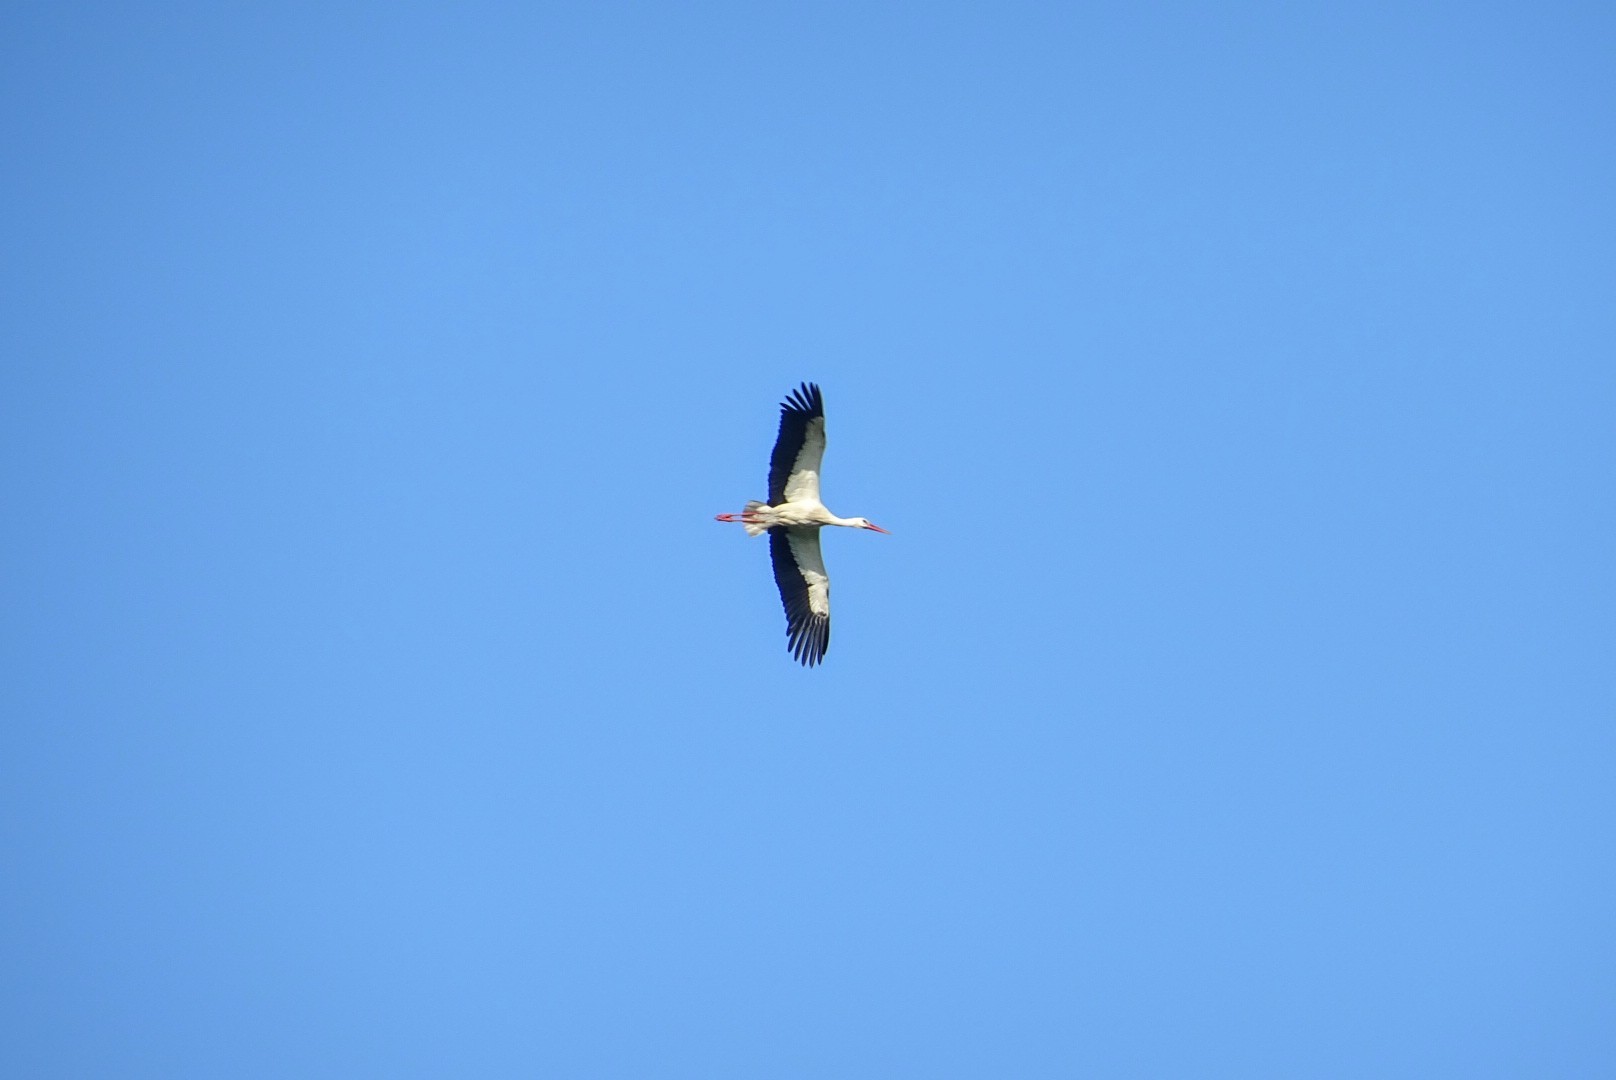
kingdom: Animalia
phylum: Chordata
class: Aves
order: Ciconiiformes
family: Ciconiidae
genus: Ciconia
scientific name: Ciconia ciconia
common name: White stork
